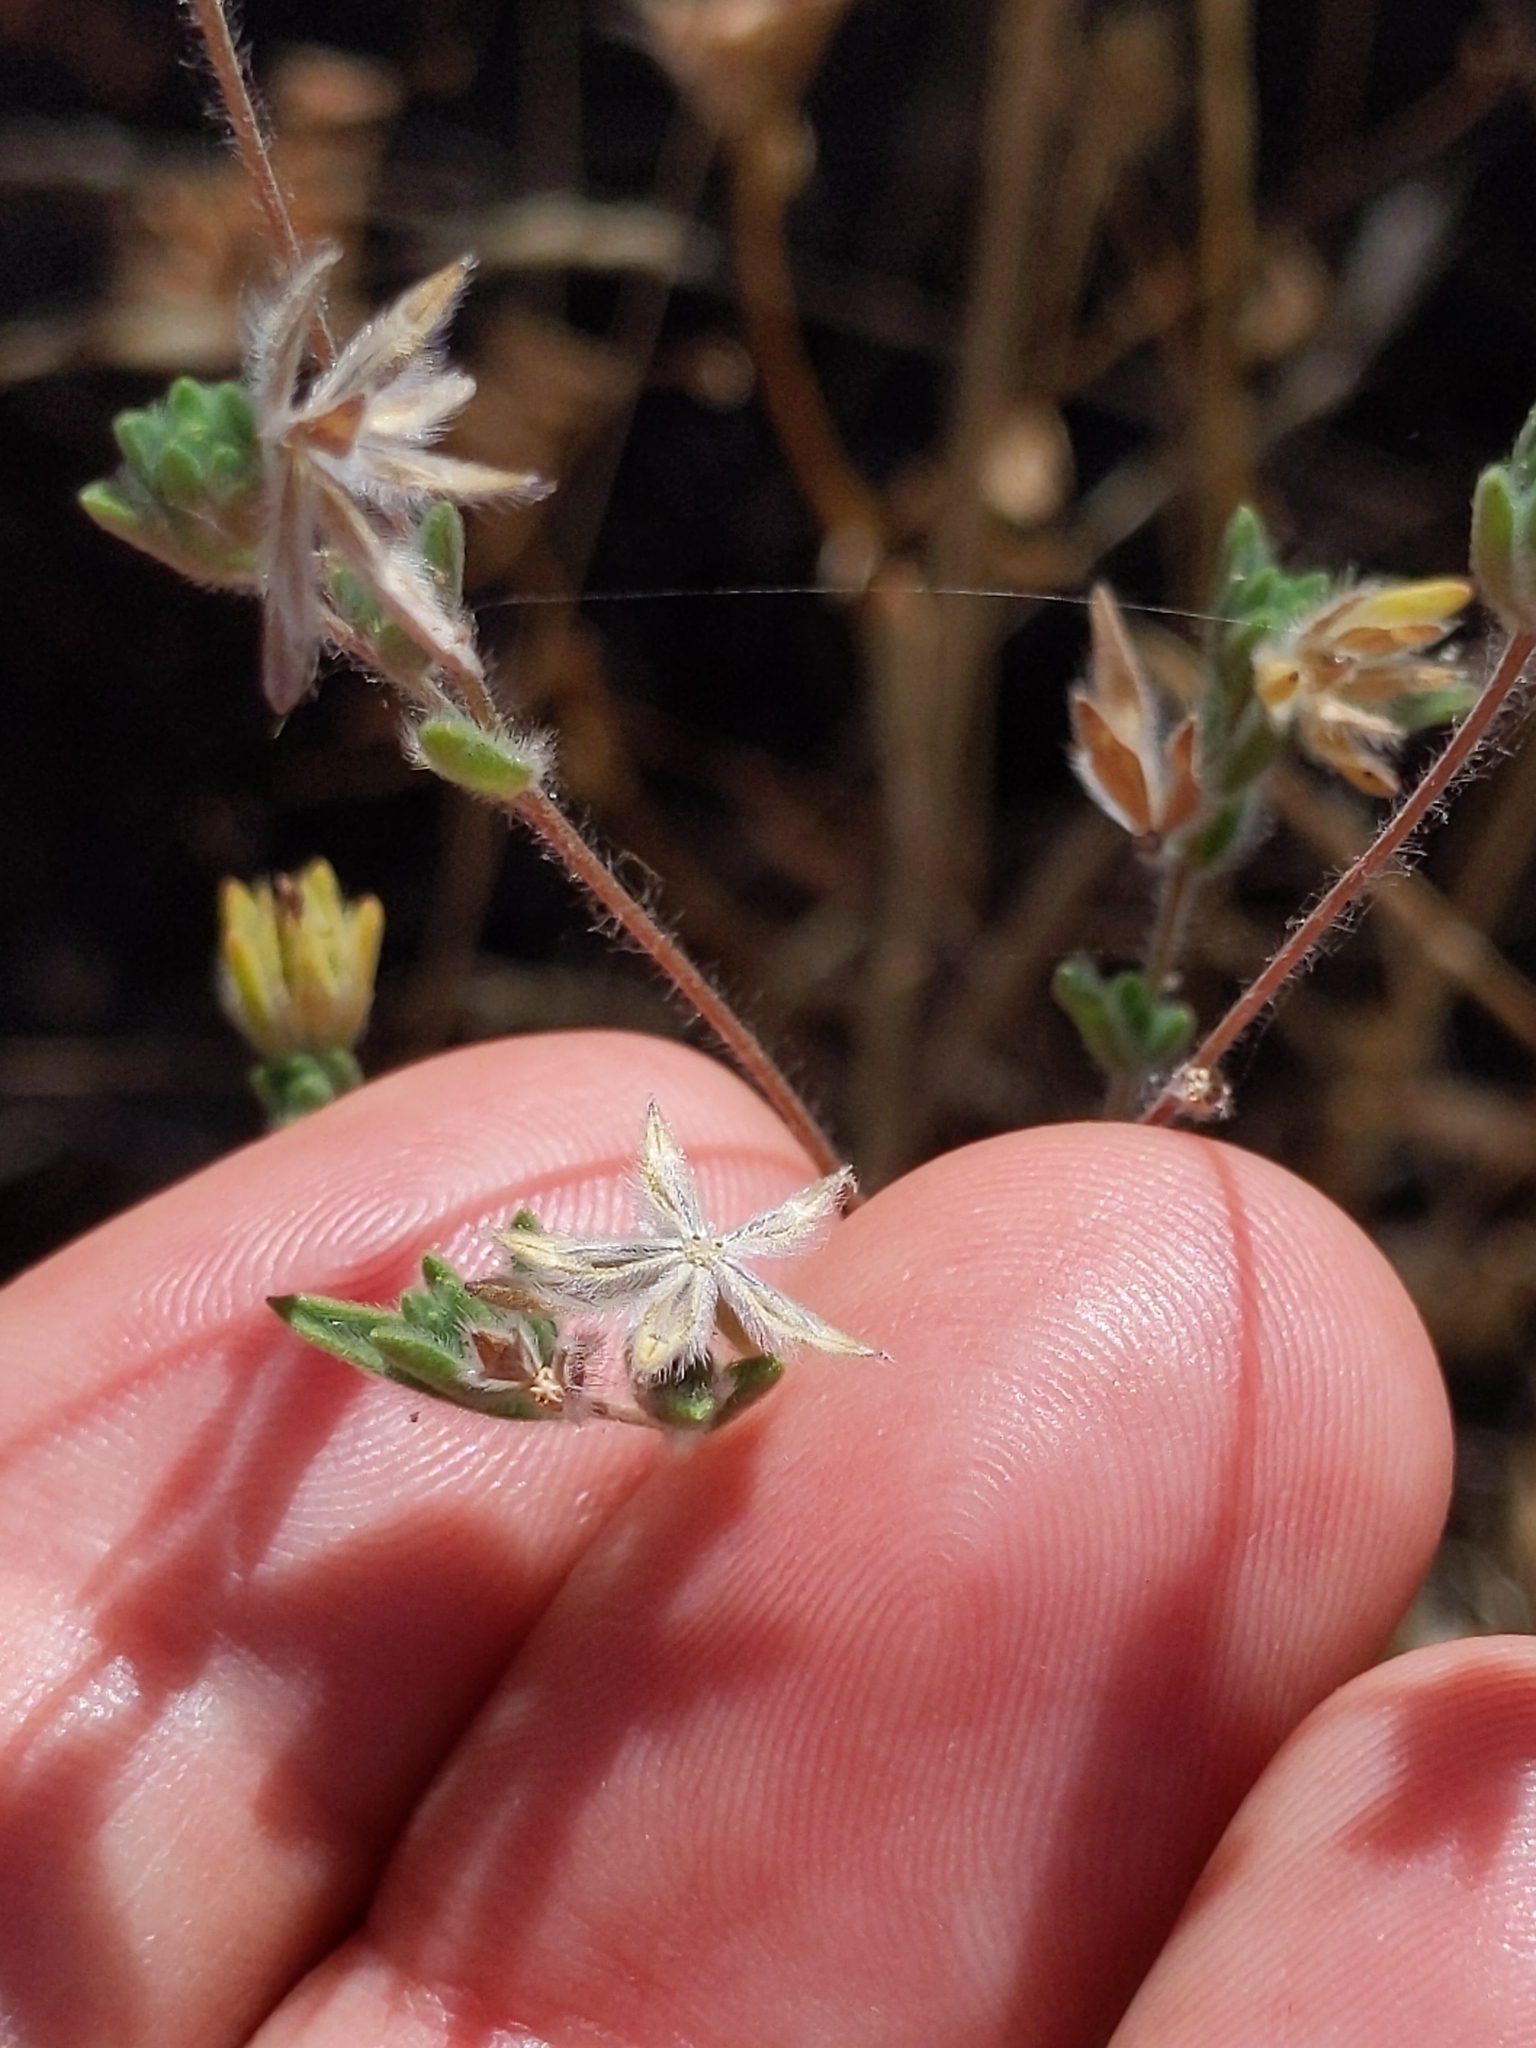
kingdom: Plantae
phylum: Tracheophyta
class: Magnoliopsida
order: Asterales
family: Asteraceae
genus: Lagophylla
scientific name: Lagophylla ramosissima
